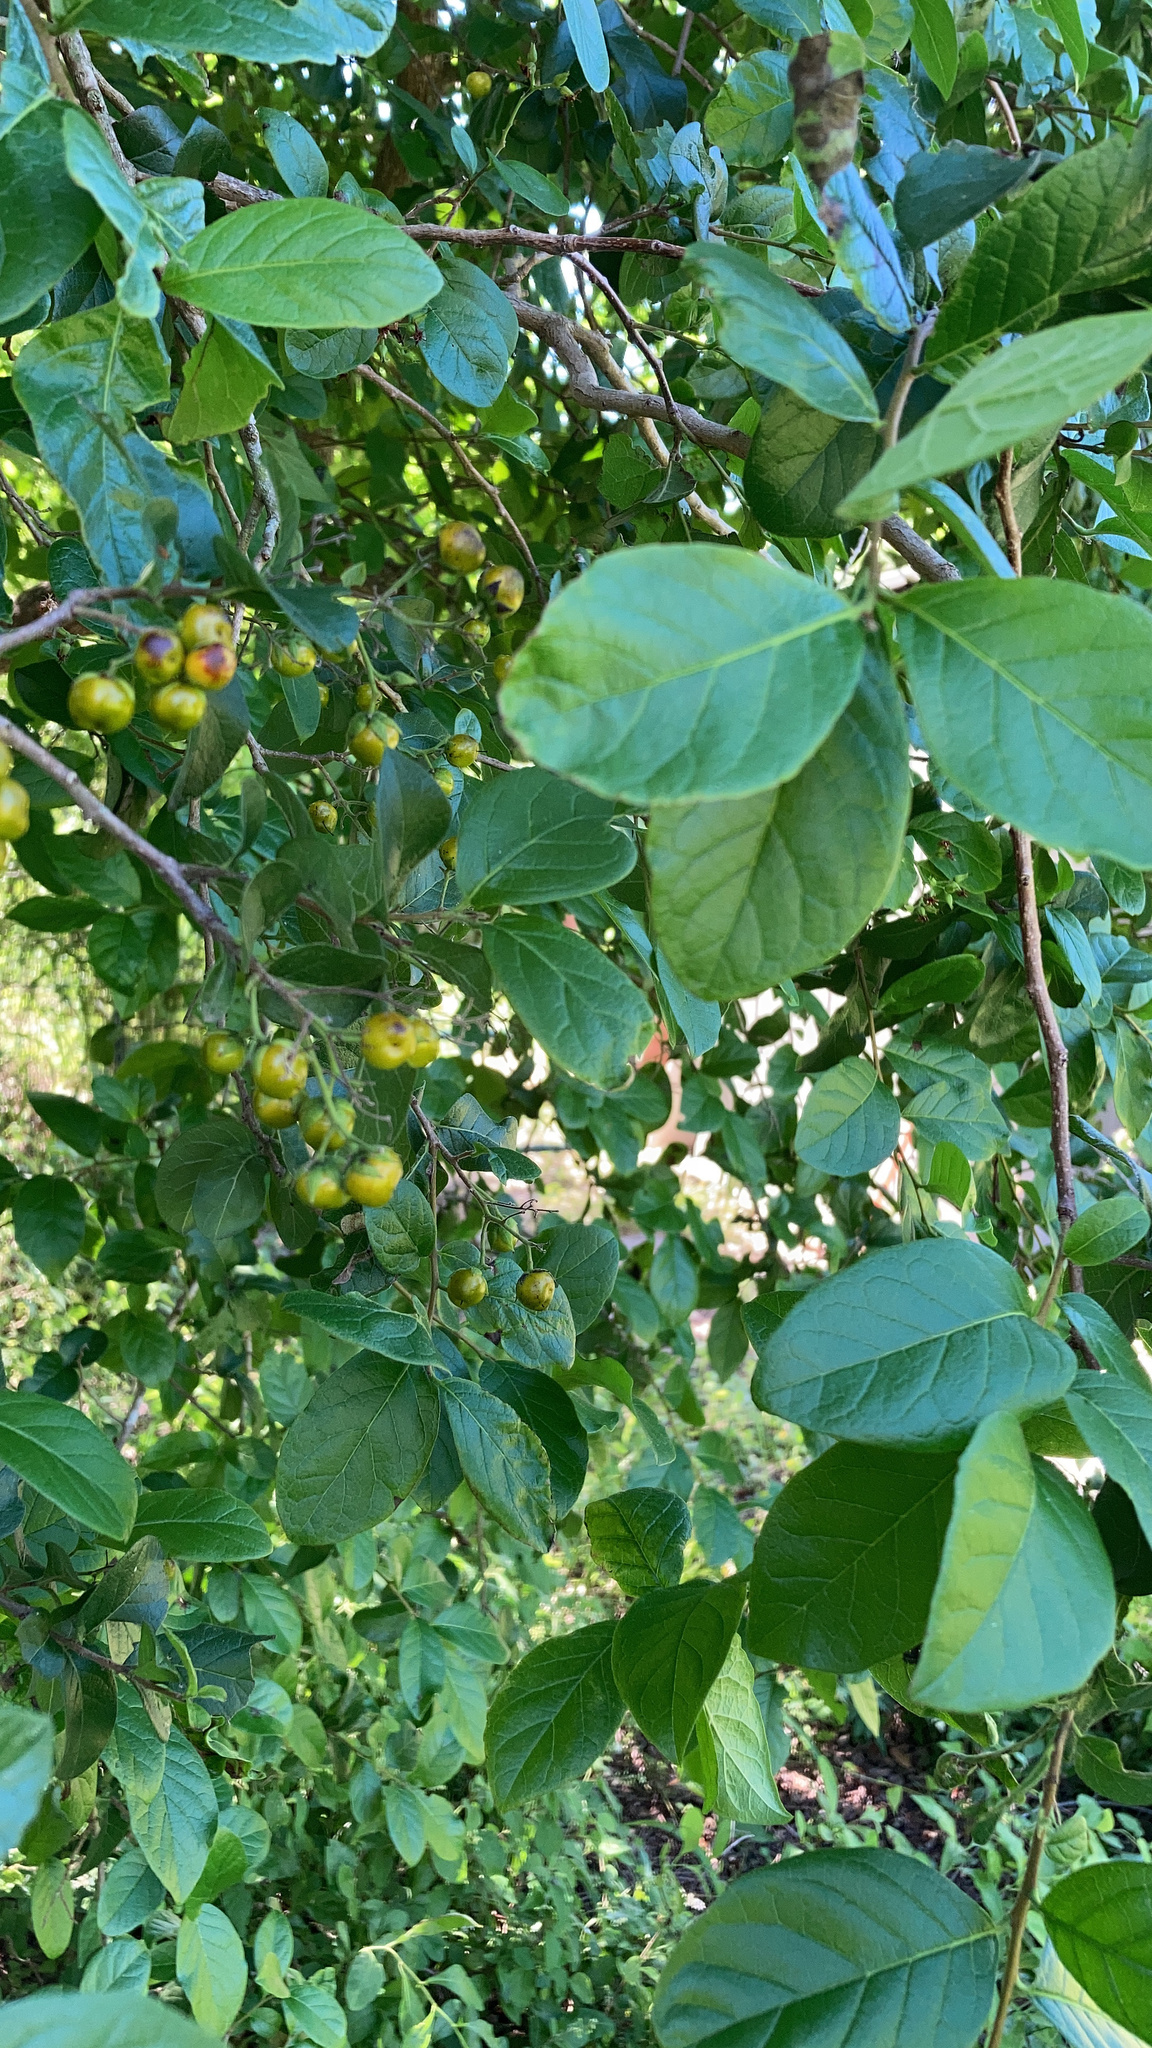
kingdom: Plantae
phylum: Tracheophyta
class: Magnoliopsida
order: Boraginales
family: Ehretiaceae
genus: Ehretia
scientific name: Ehretia anacua
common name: Sugarberry
